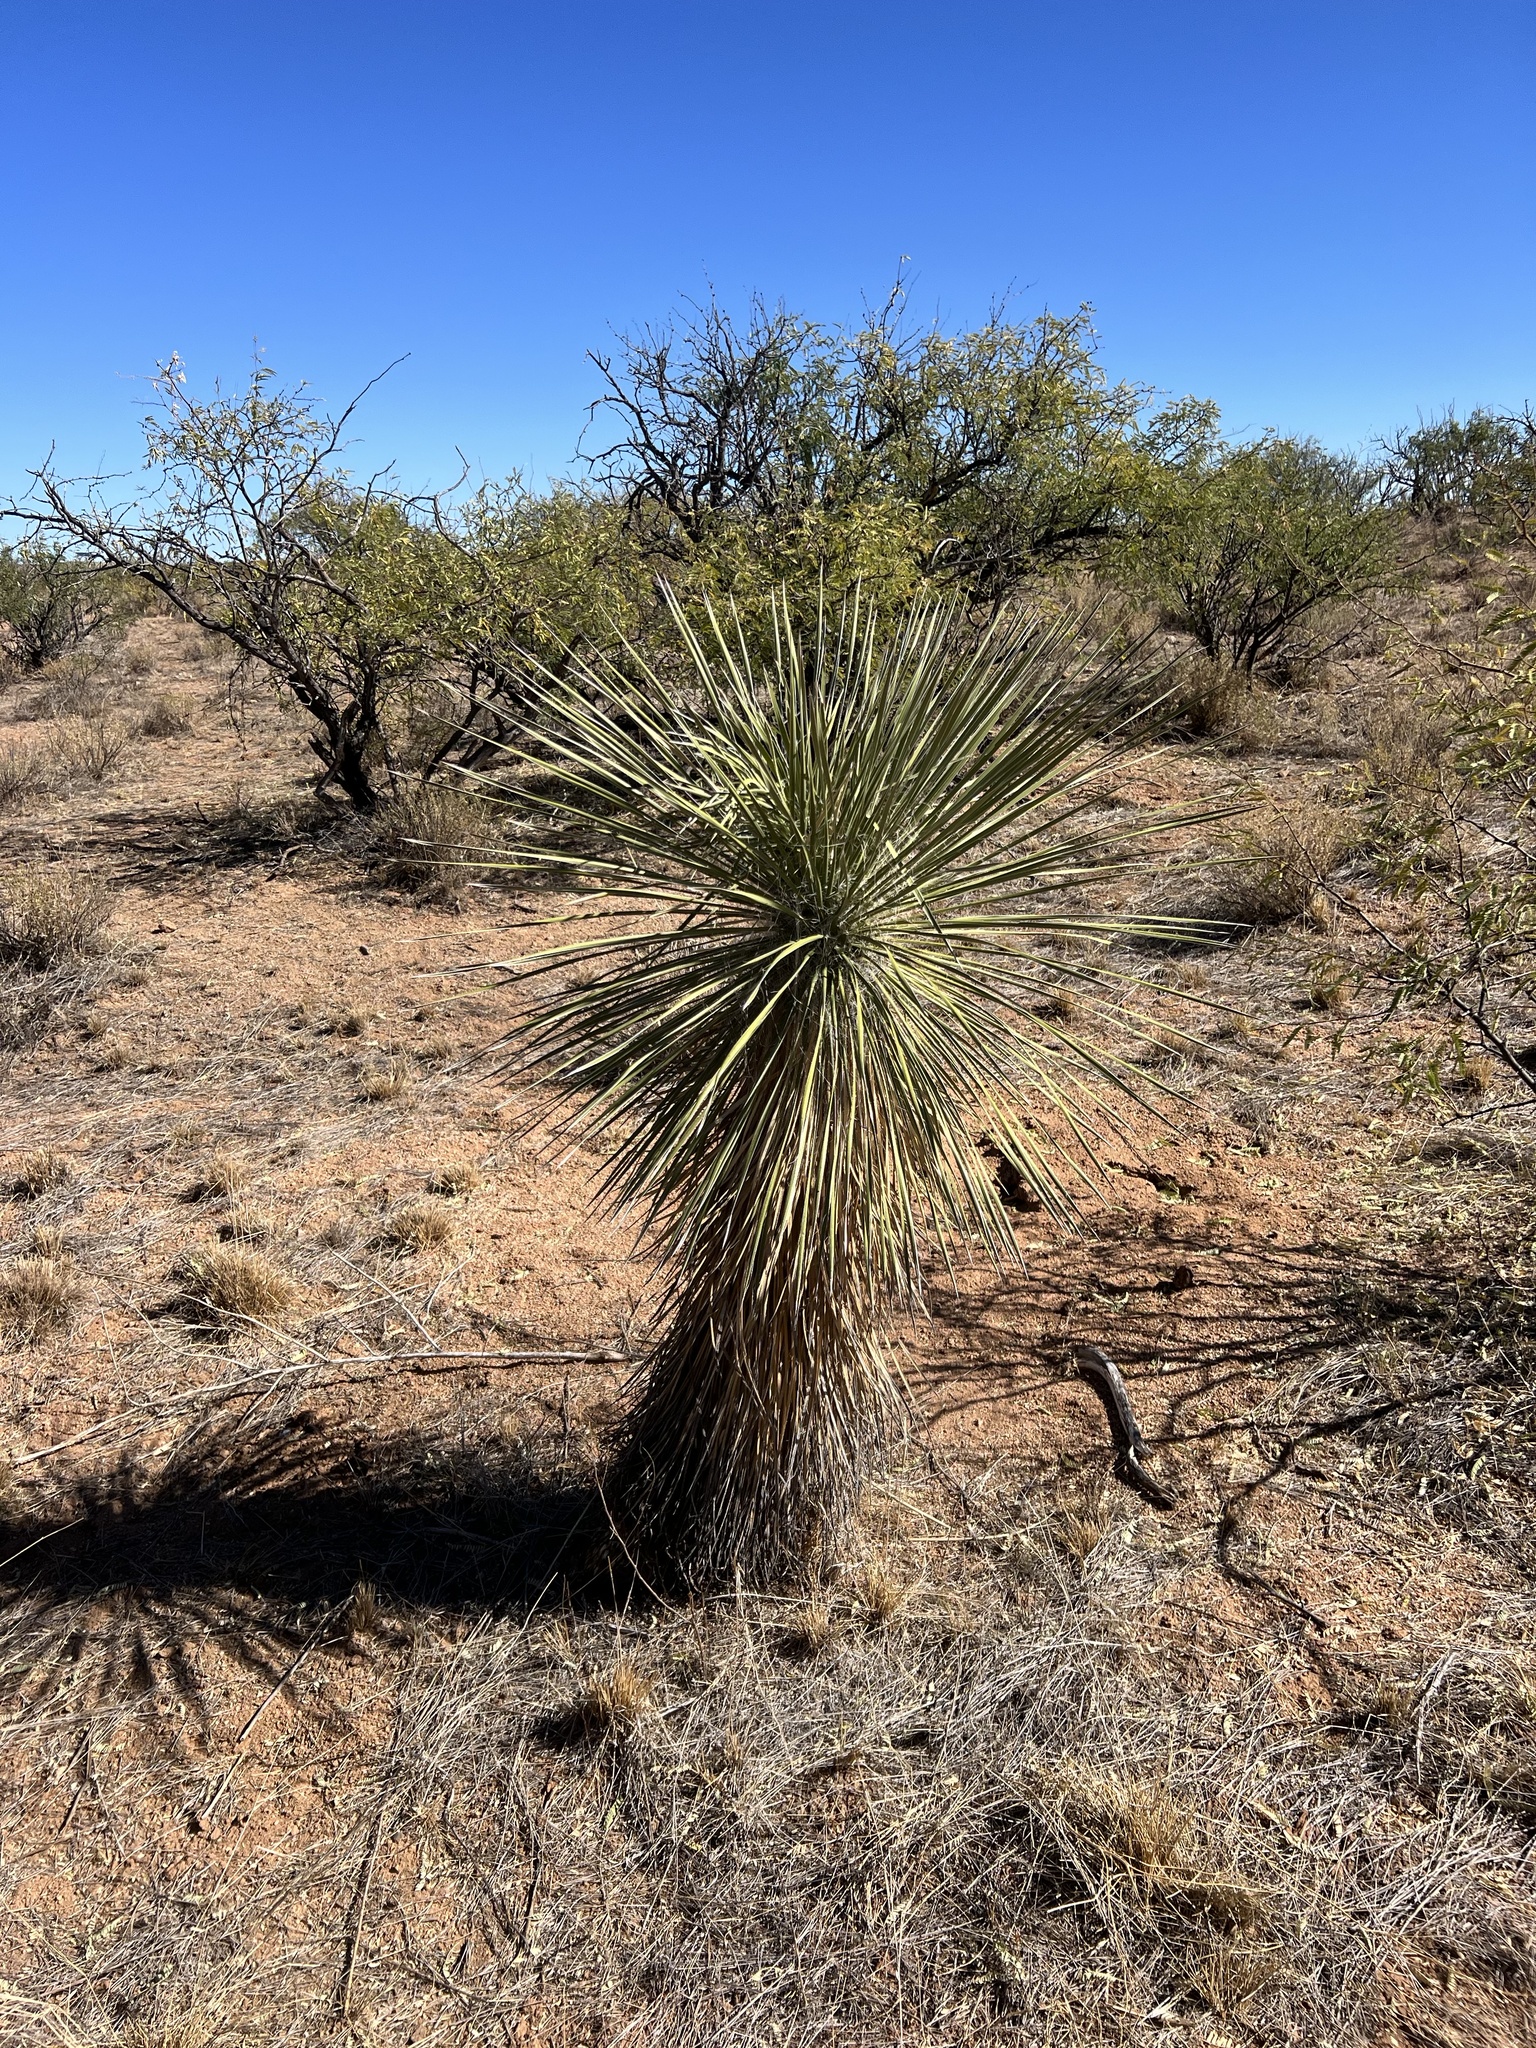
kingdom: Plantae
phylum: Tracheophyta
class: Liliopsida
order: Asparagales
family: Asparagaceae
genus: Yucca
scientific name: Yucca elata
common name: Palmella
